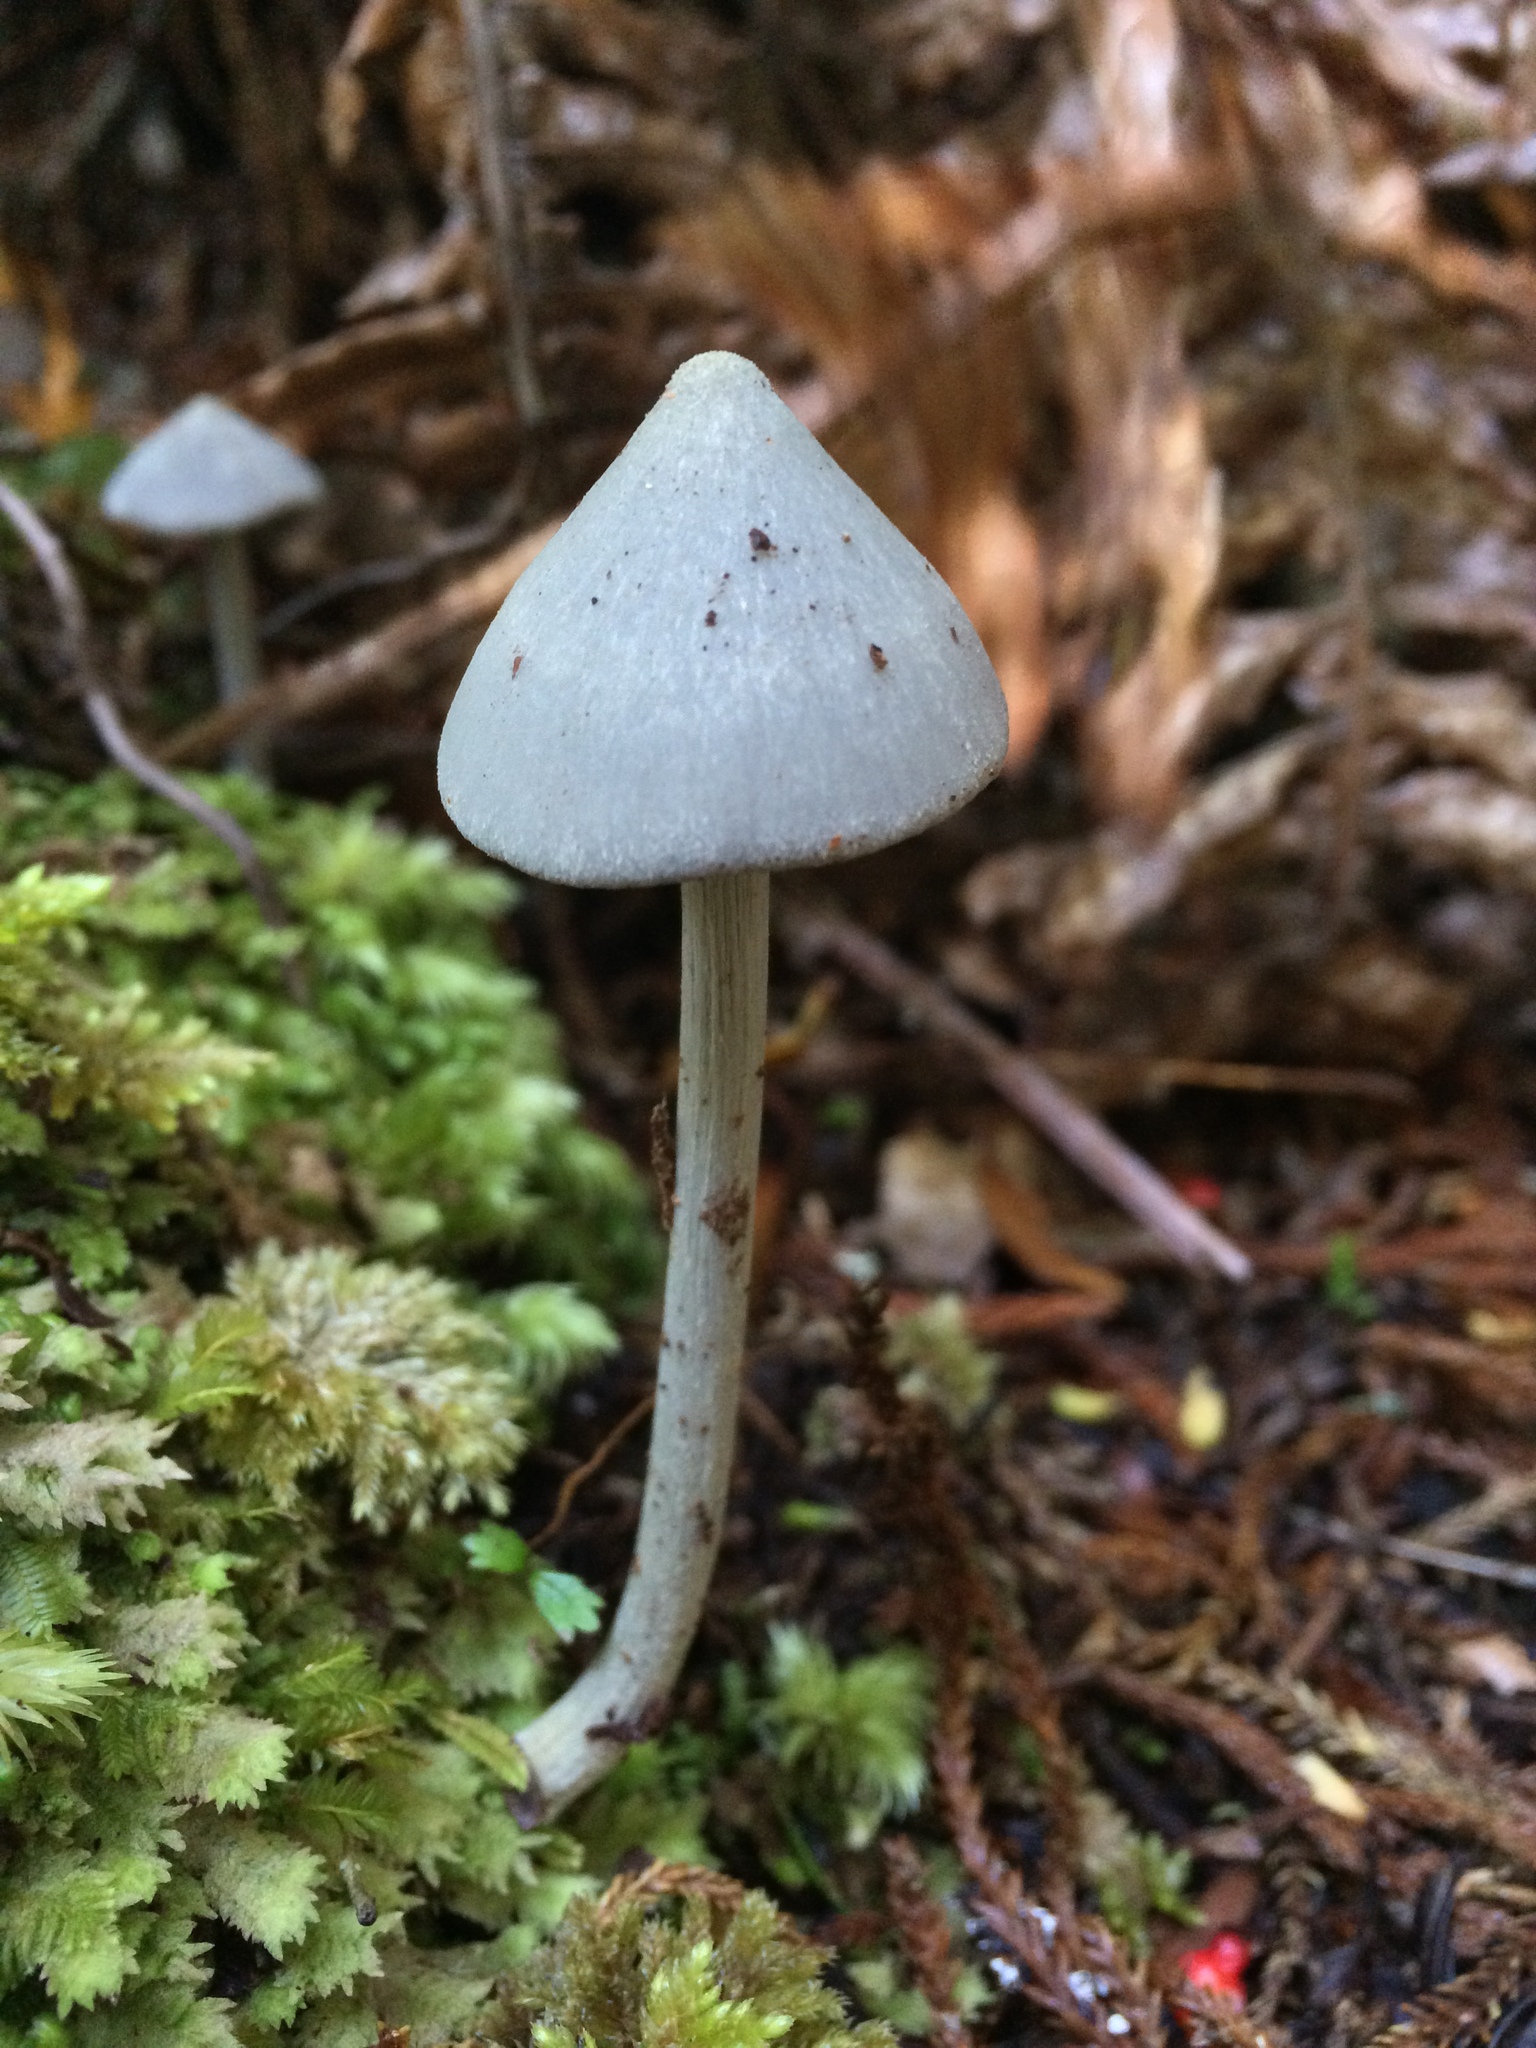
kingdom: Fungi
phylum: Basidiomycota
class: Agaricomycetes
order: Agaricales
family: Entolomataceae
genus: Entoloma
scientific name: Entoloma hochstetteri
